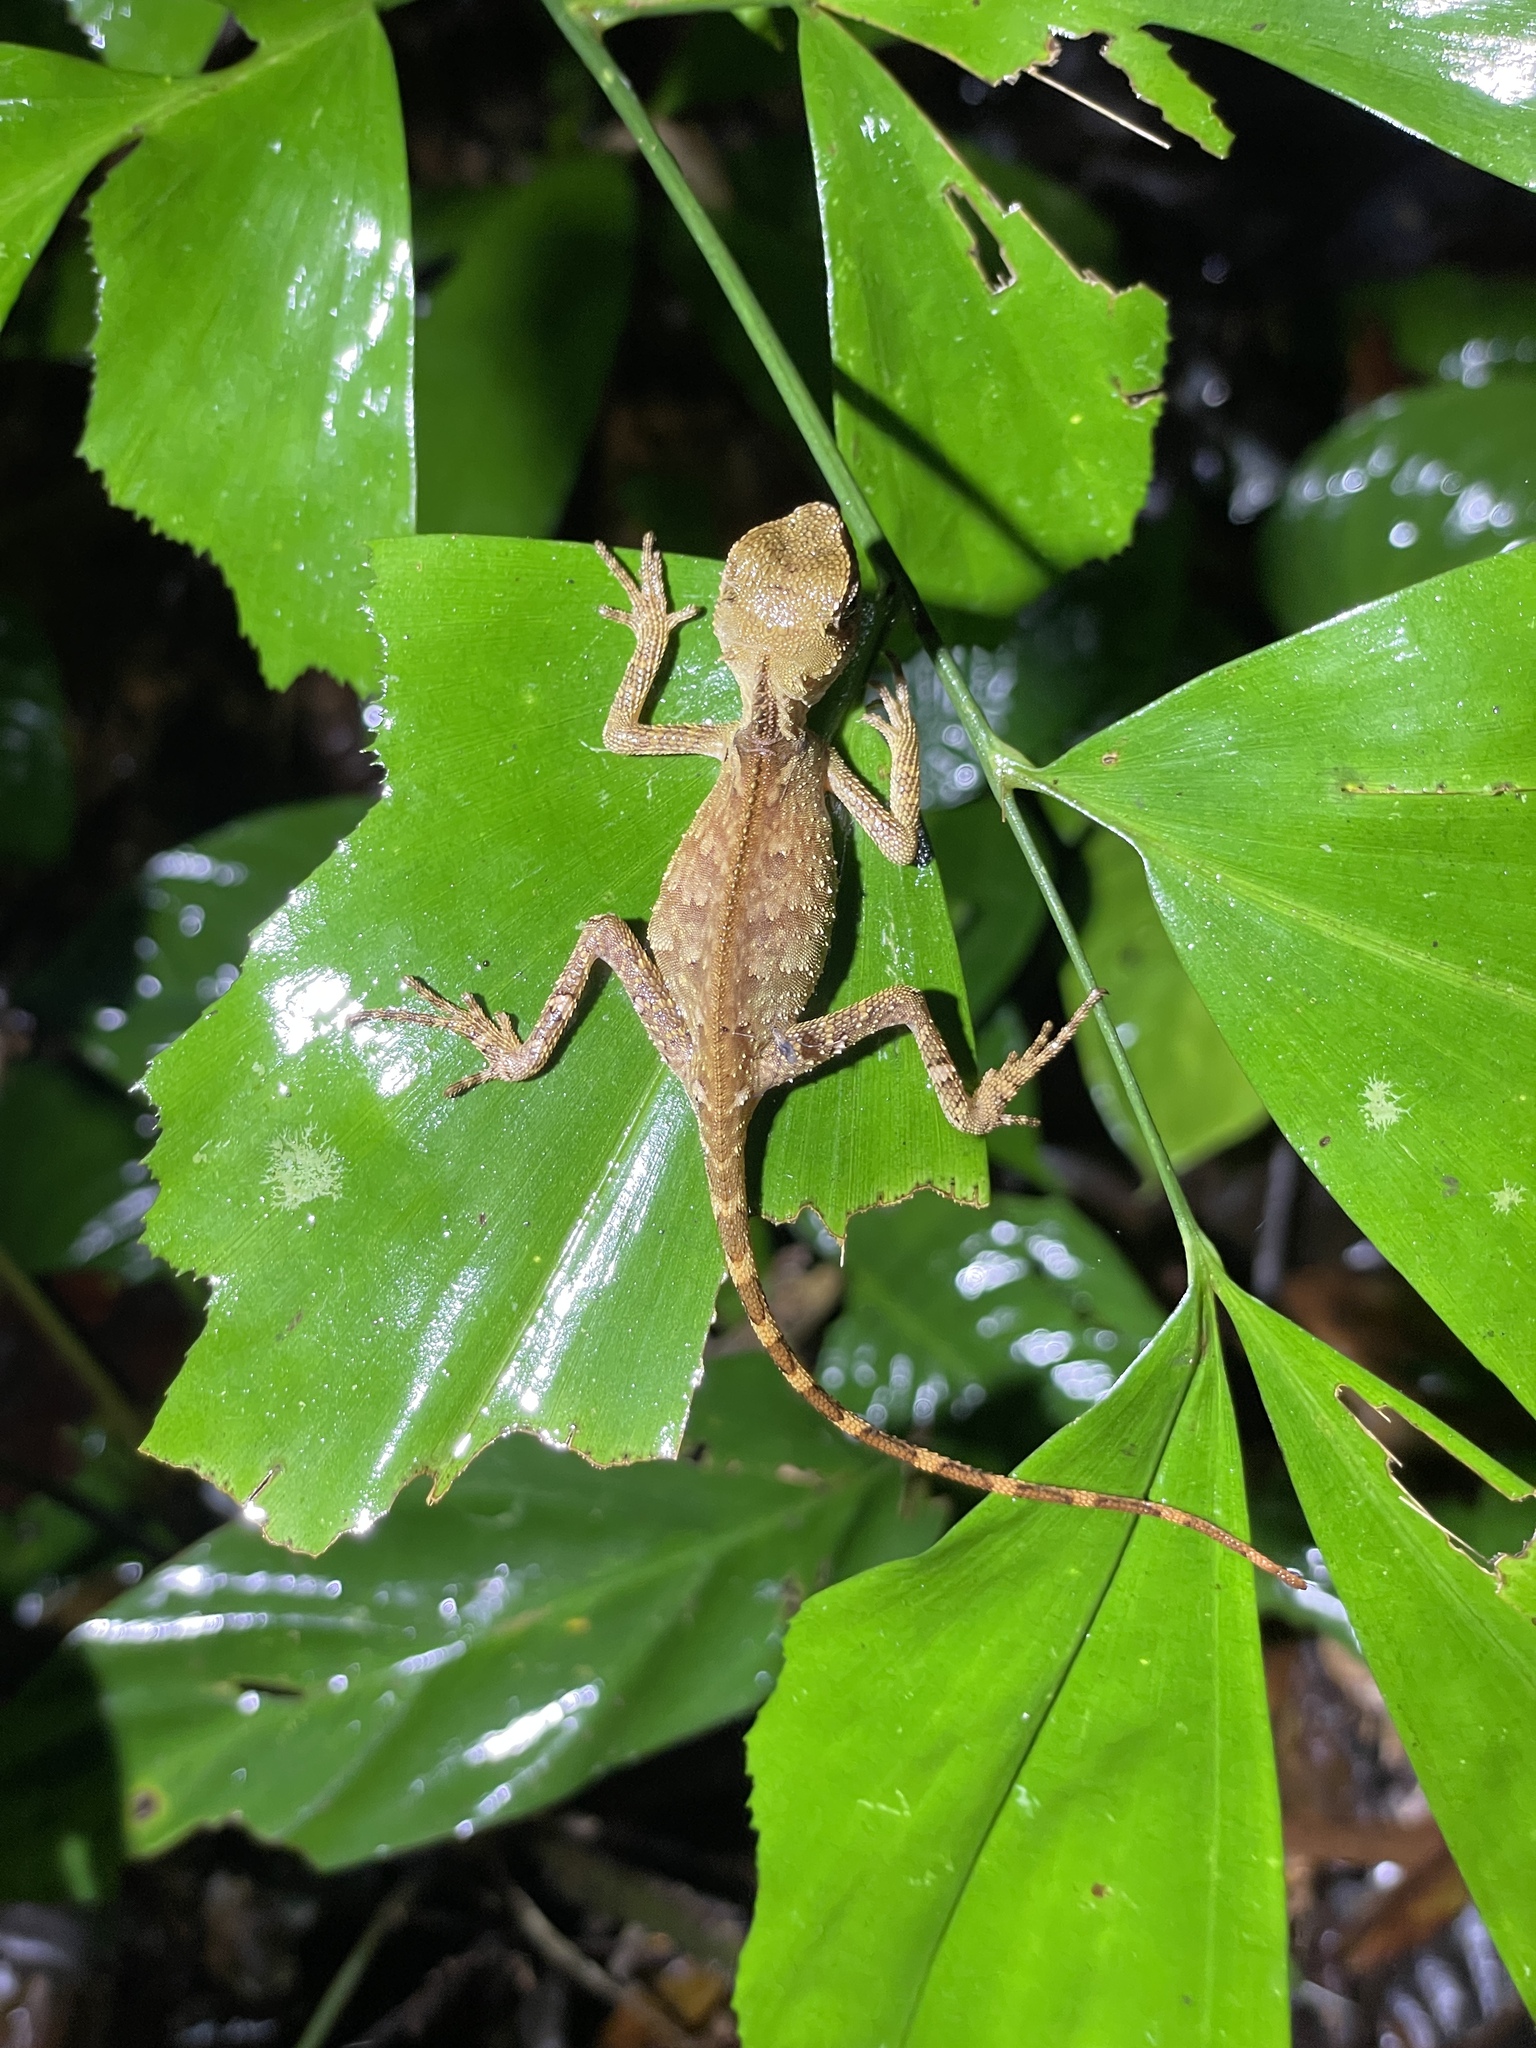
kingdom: Animalia
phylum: Chordata
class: Squamata
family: Agamidae
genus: Acanthosaura
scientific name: Acanthosaura phuketensis
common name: Phuket horned tree agamid
